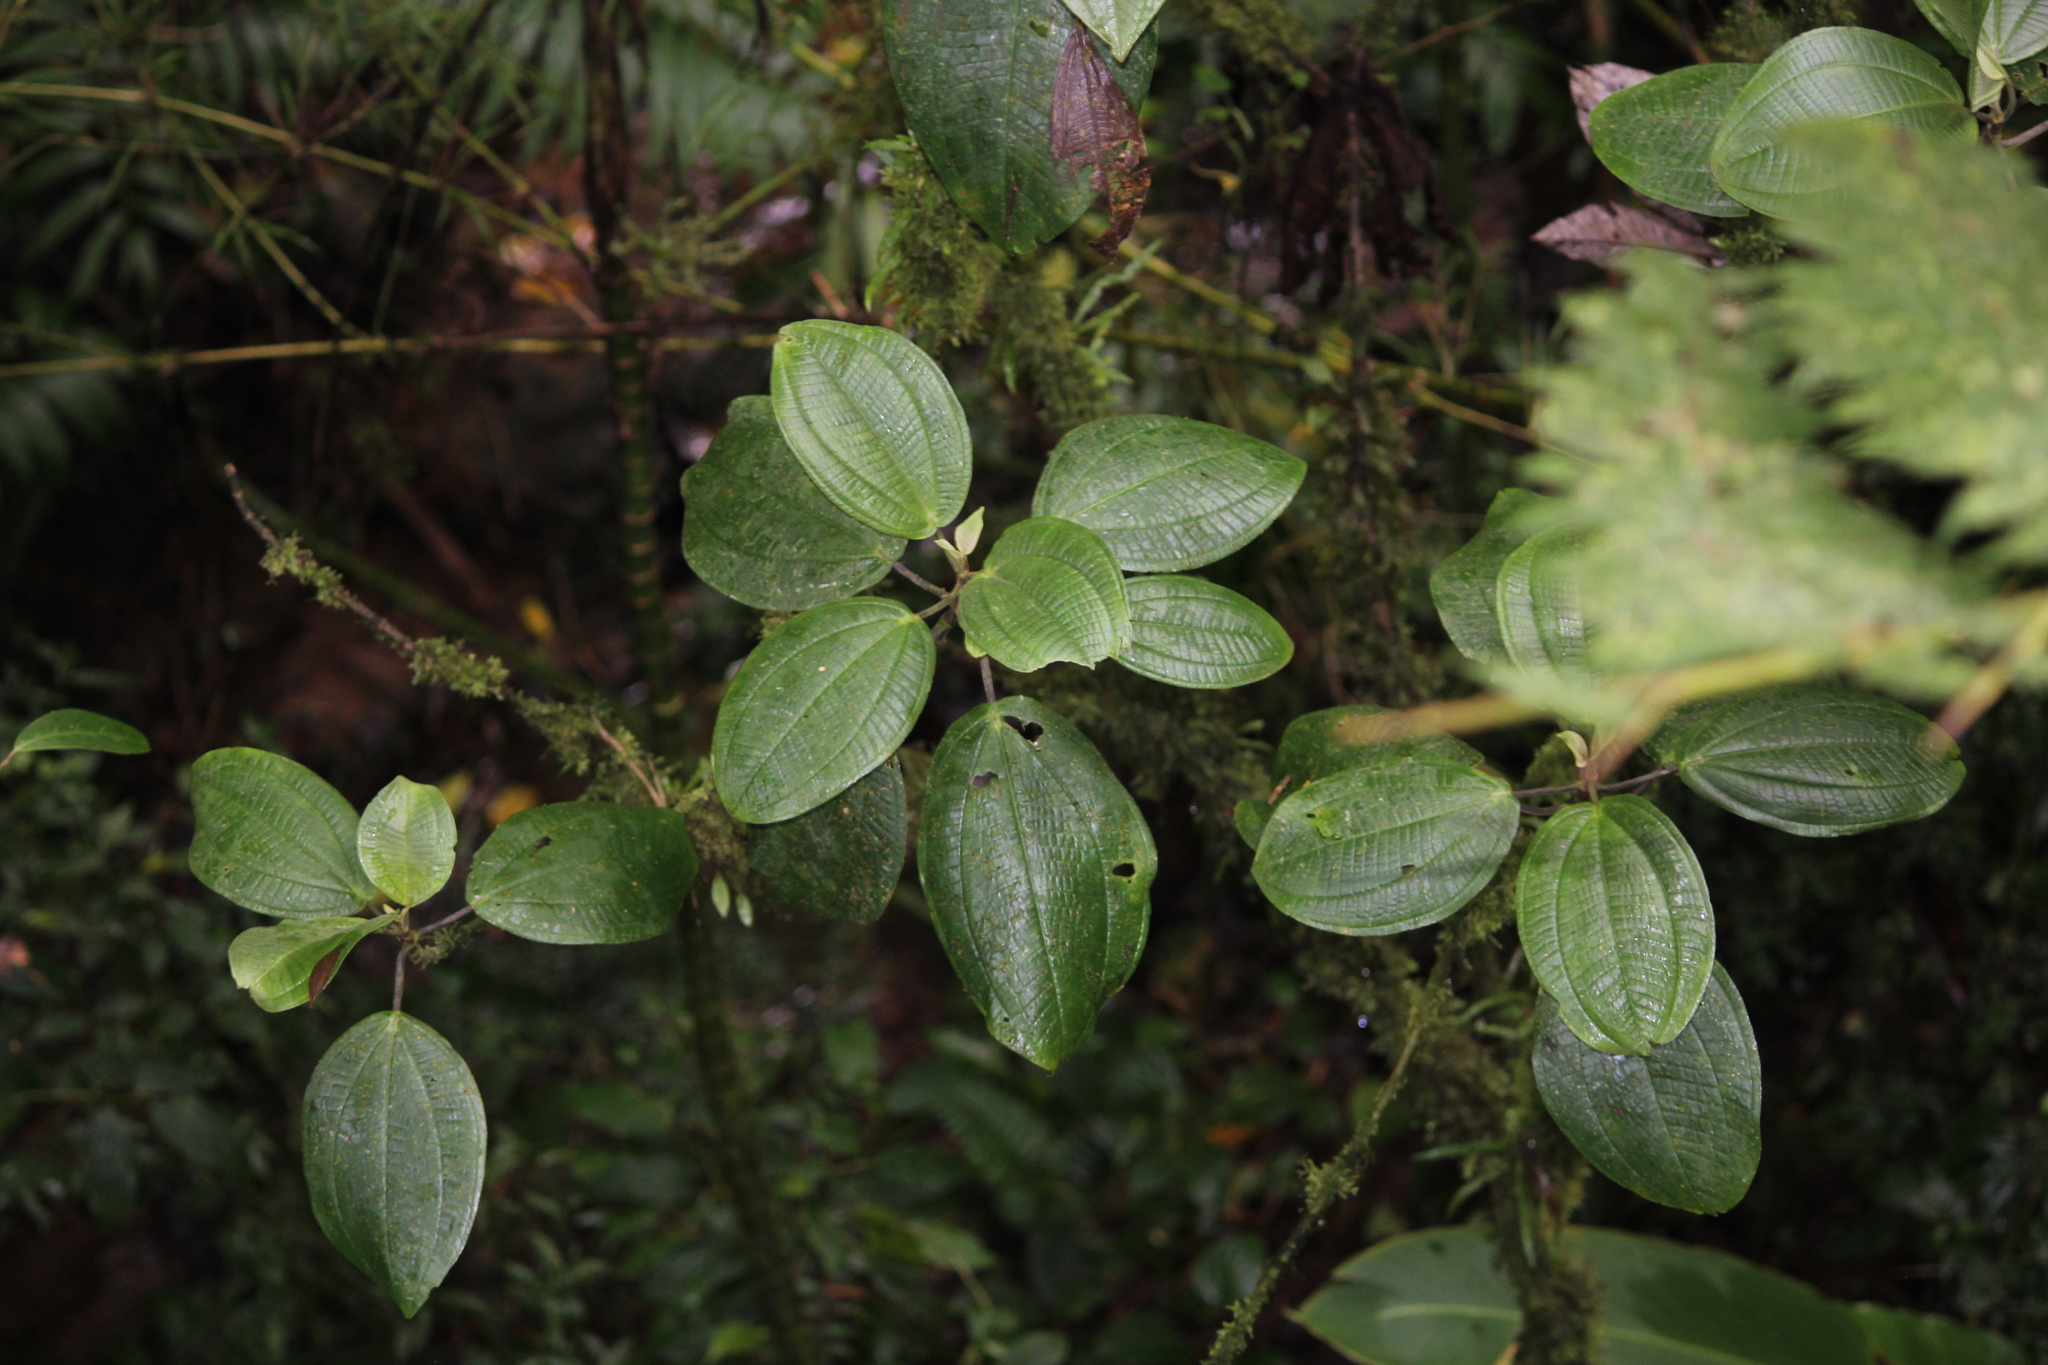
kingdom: Plantae
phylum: Tracheophyta
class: Magnoliopsida
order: Myrtales
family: Melastomataceae
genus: Meriania
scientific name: Meriania phlomoides
